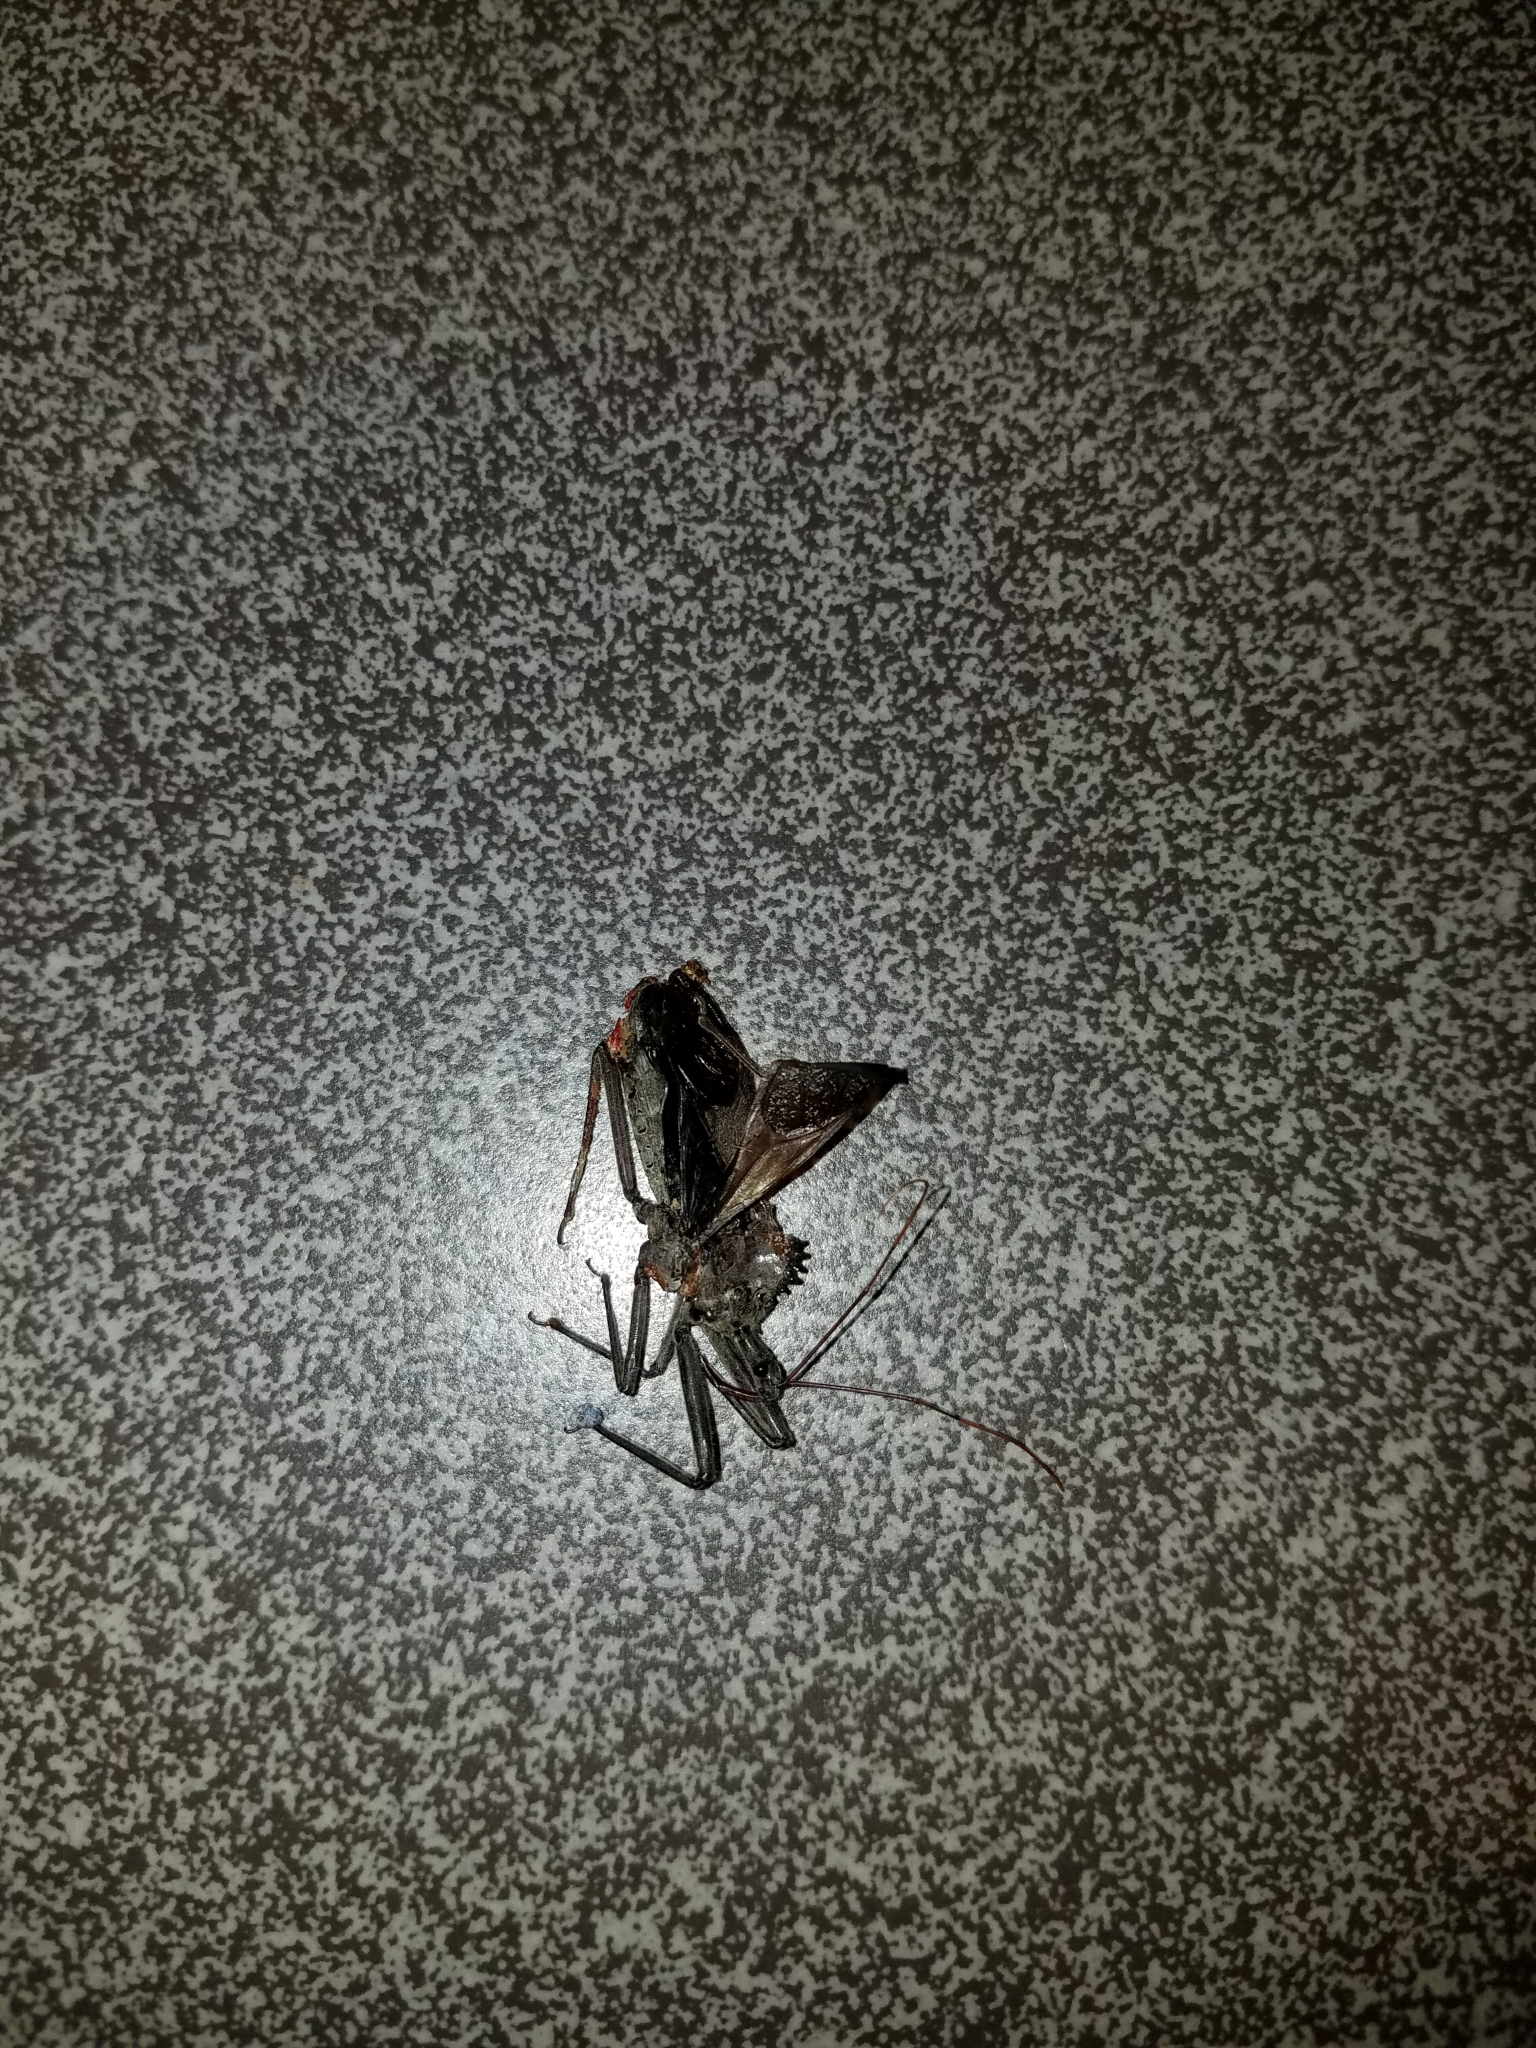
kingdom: Animalia
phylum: Arthropoda
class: Insecta
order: Hemiptera
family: Reduviidae
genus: Arilus
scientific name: Arilus cristatus
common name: North american wheel bug
